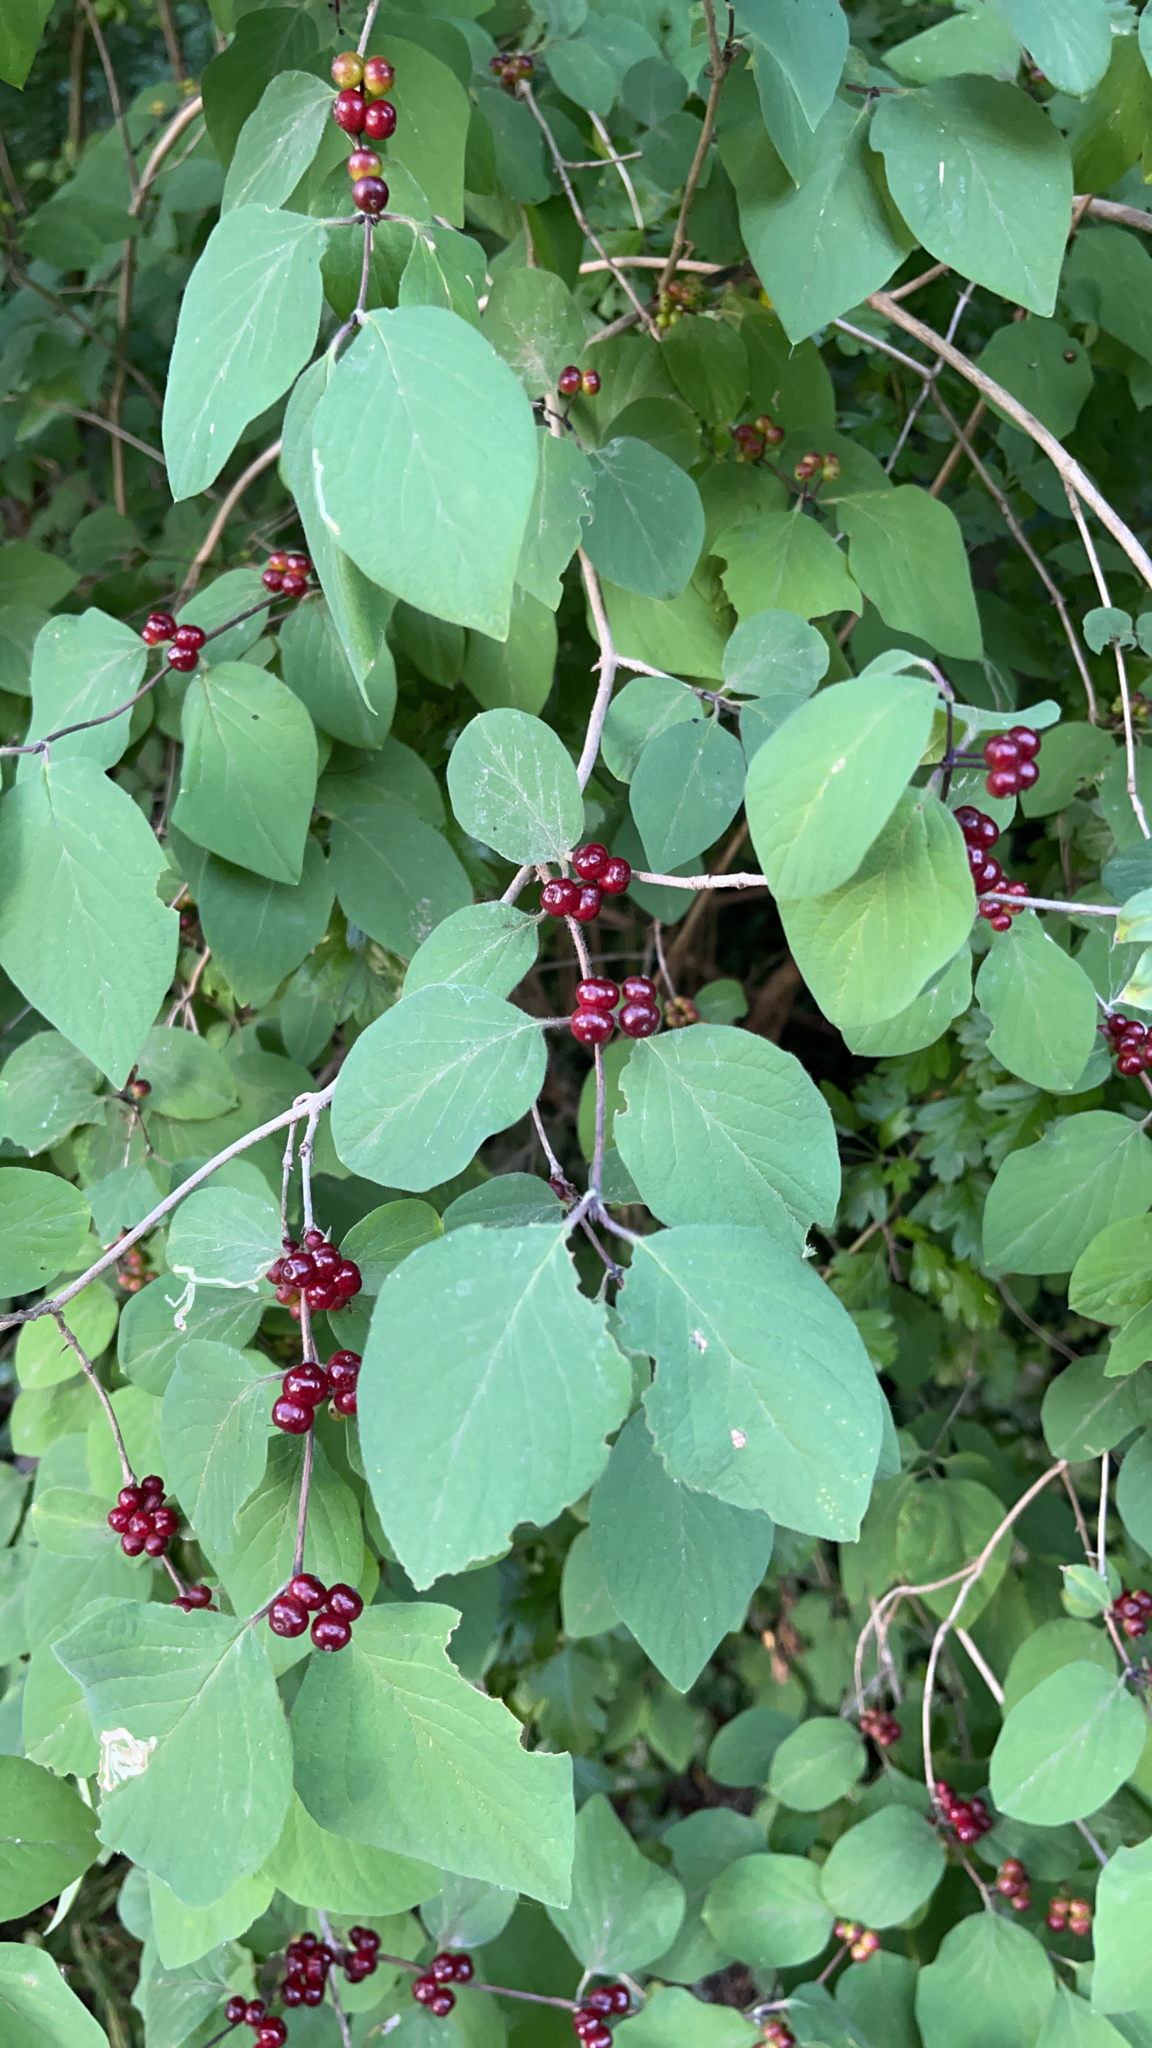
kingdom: Plantae
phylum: Tracheophyta
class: Magnoliopsida
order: Dipsacales
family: Caprifoliaceae
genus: Lonicera
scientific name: Lonicera xylosteum
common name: Fly honeysuckle
